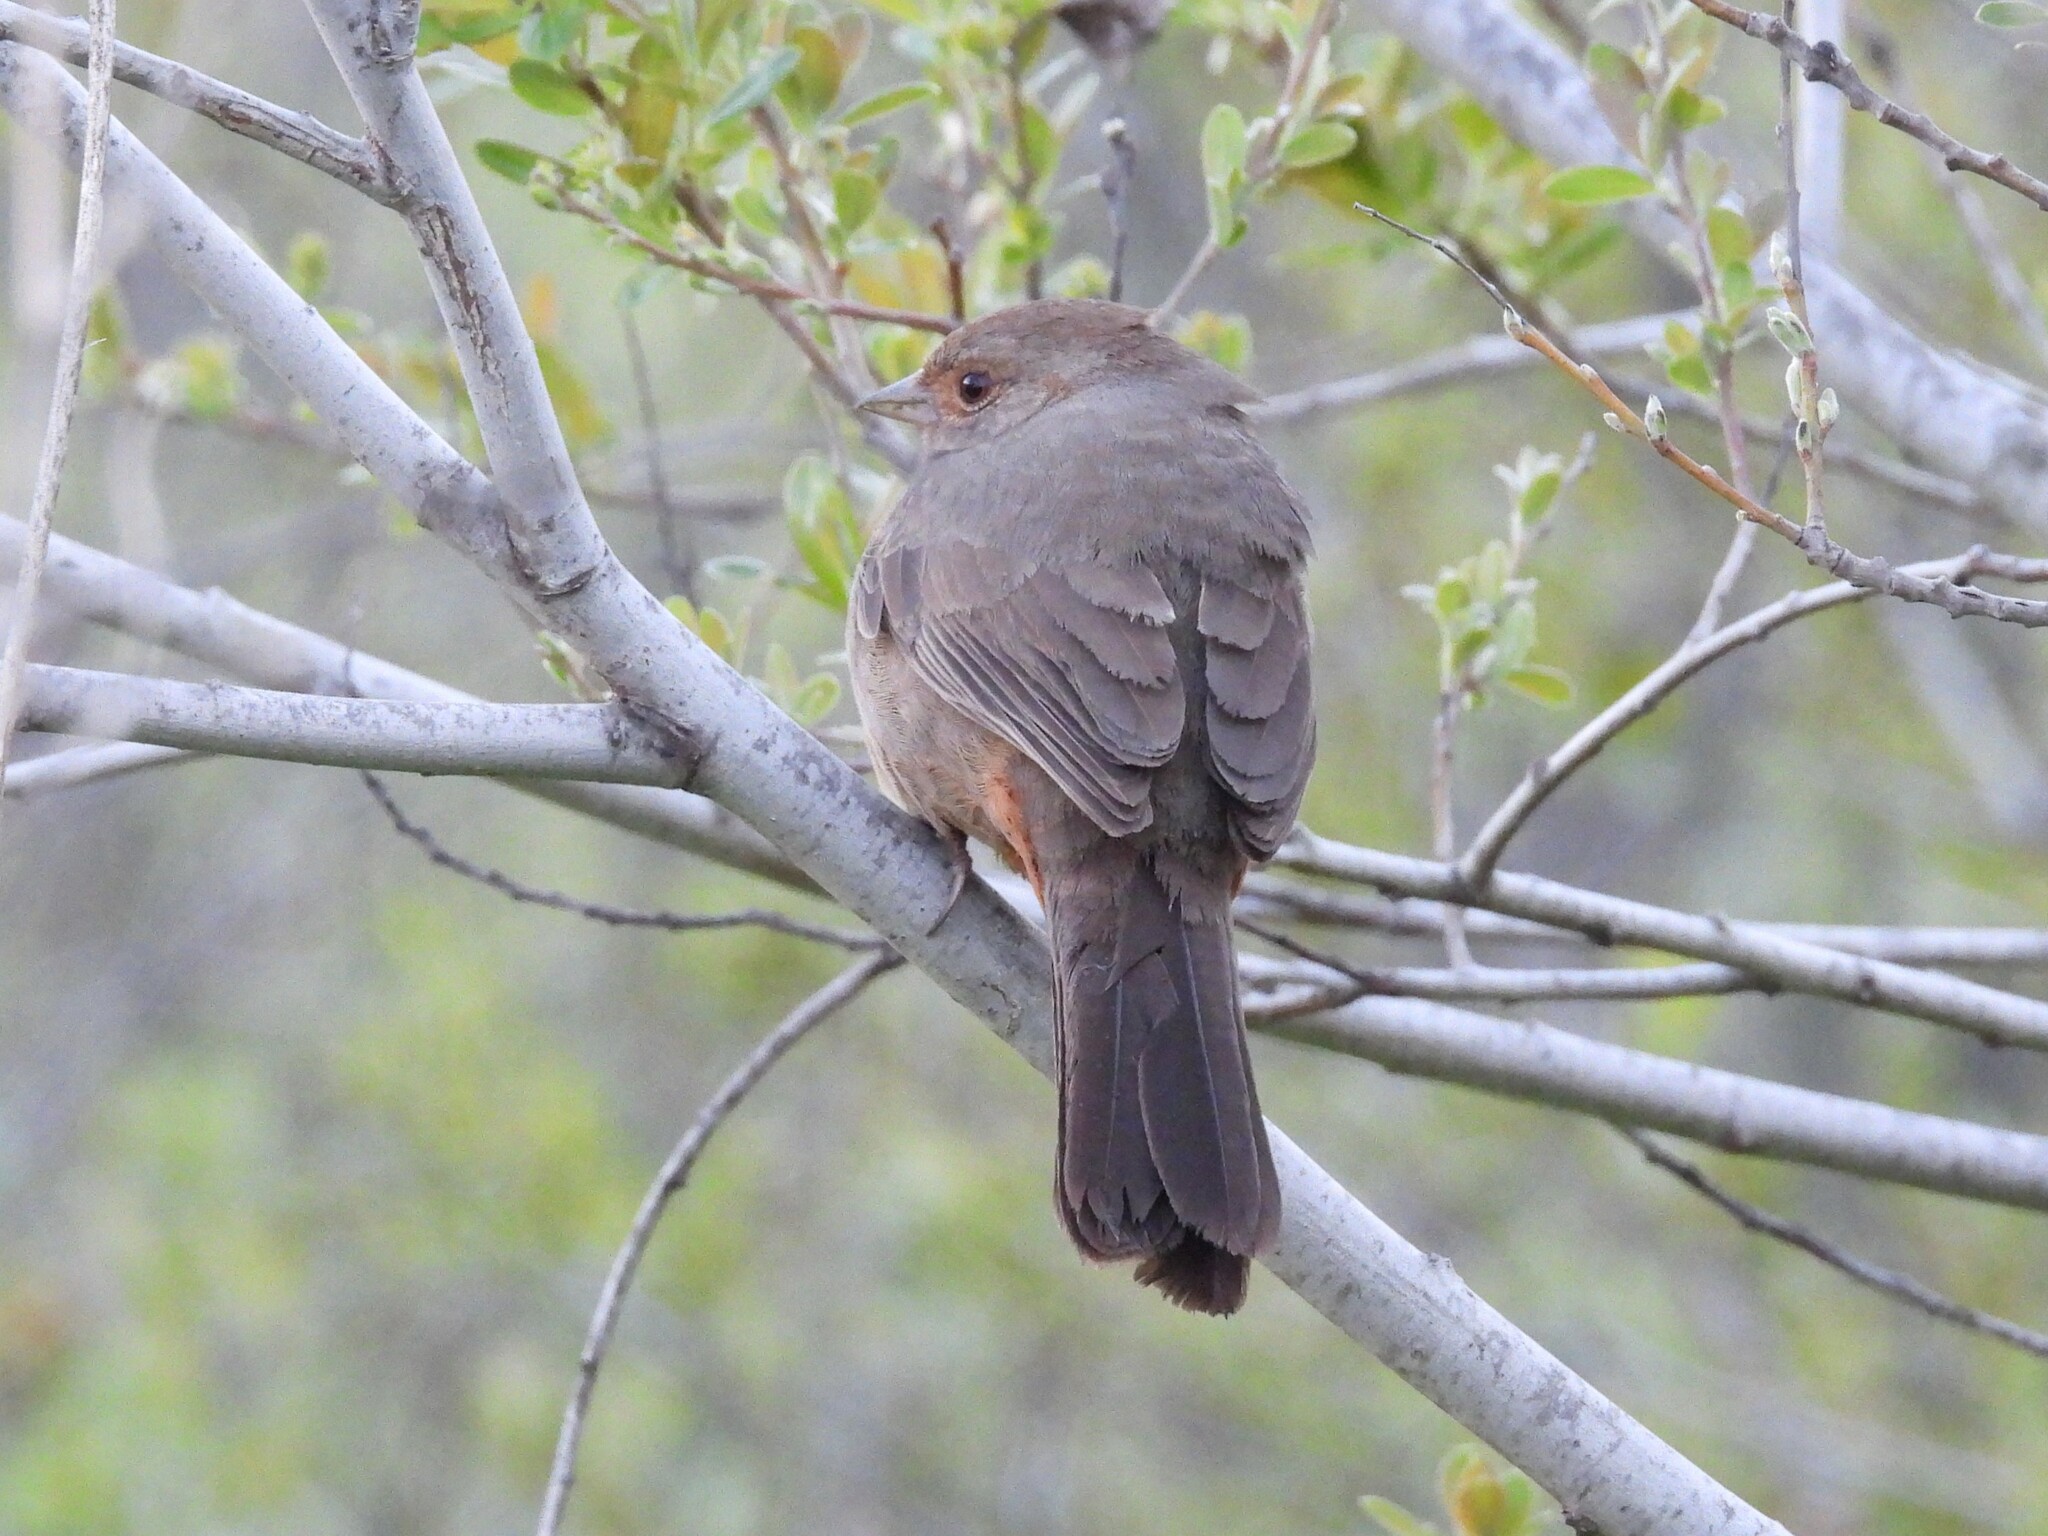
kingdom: Animalia
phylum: Chordata
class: Aves
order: Passeriformes
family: Passerellidae
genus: Melozone
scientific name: Melozone crissalis
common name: California towhee
